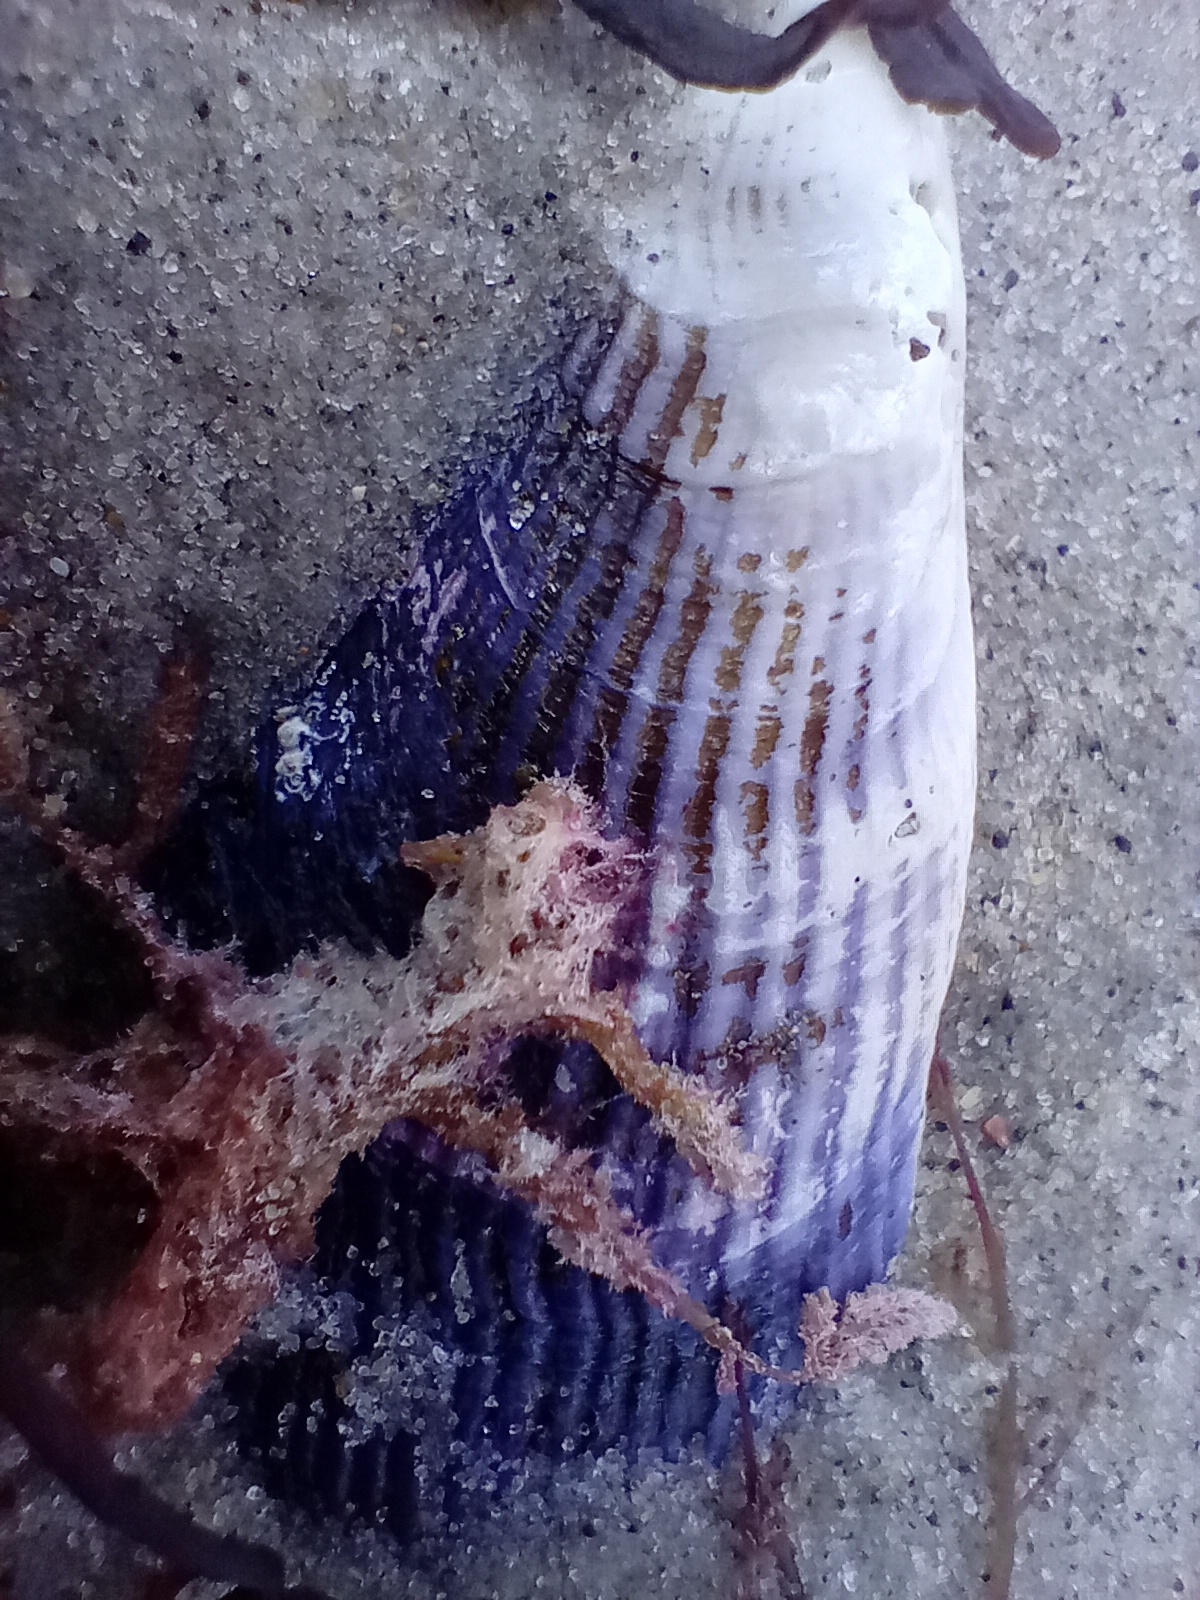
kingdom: Animalia
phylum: Mollusca
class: Bivalvia
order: Mytilida
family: Mytilidae
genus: Aulacomya
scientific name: Aulacomya maoriana
